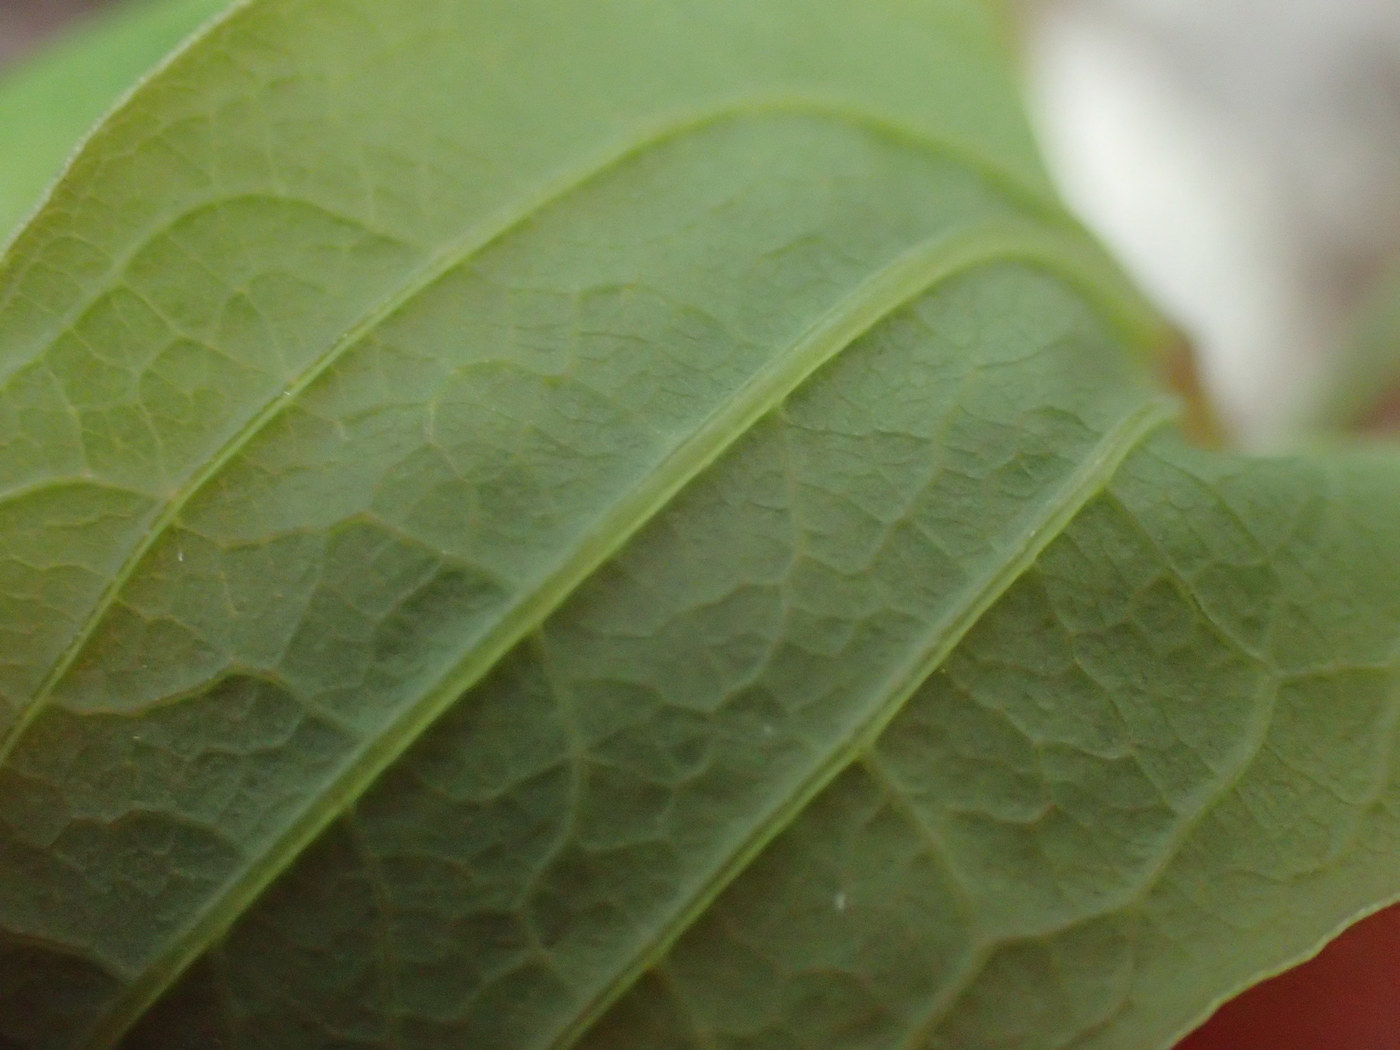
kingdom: Plantae
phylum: Tracheophyta
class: Liliopsida
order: Liliales
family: Smilacaceae
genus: Smilax
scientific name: Smilax biltmoreana
